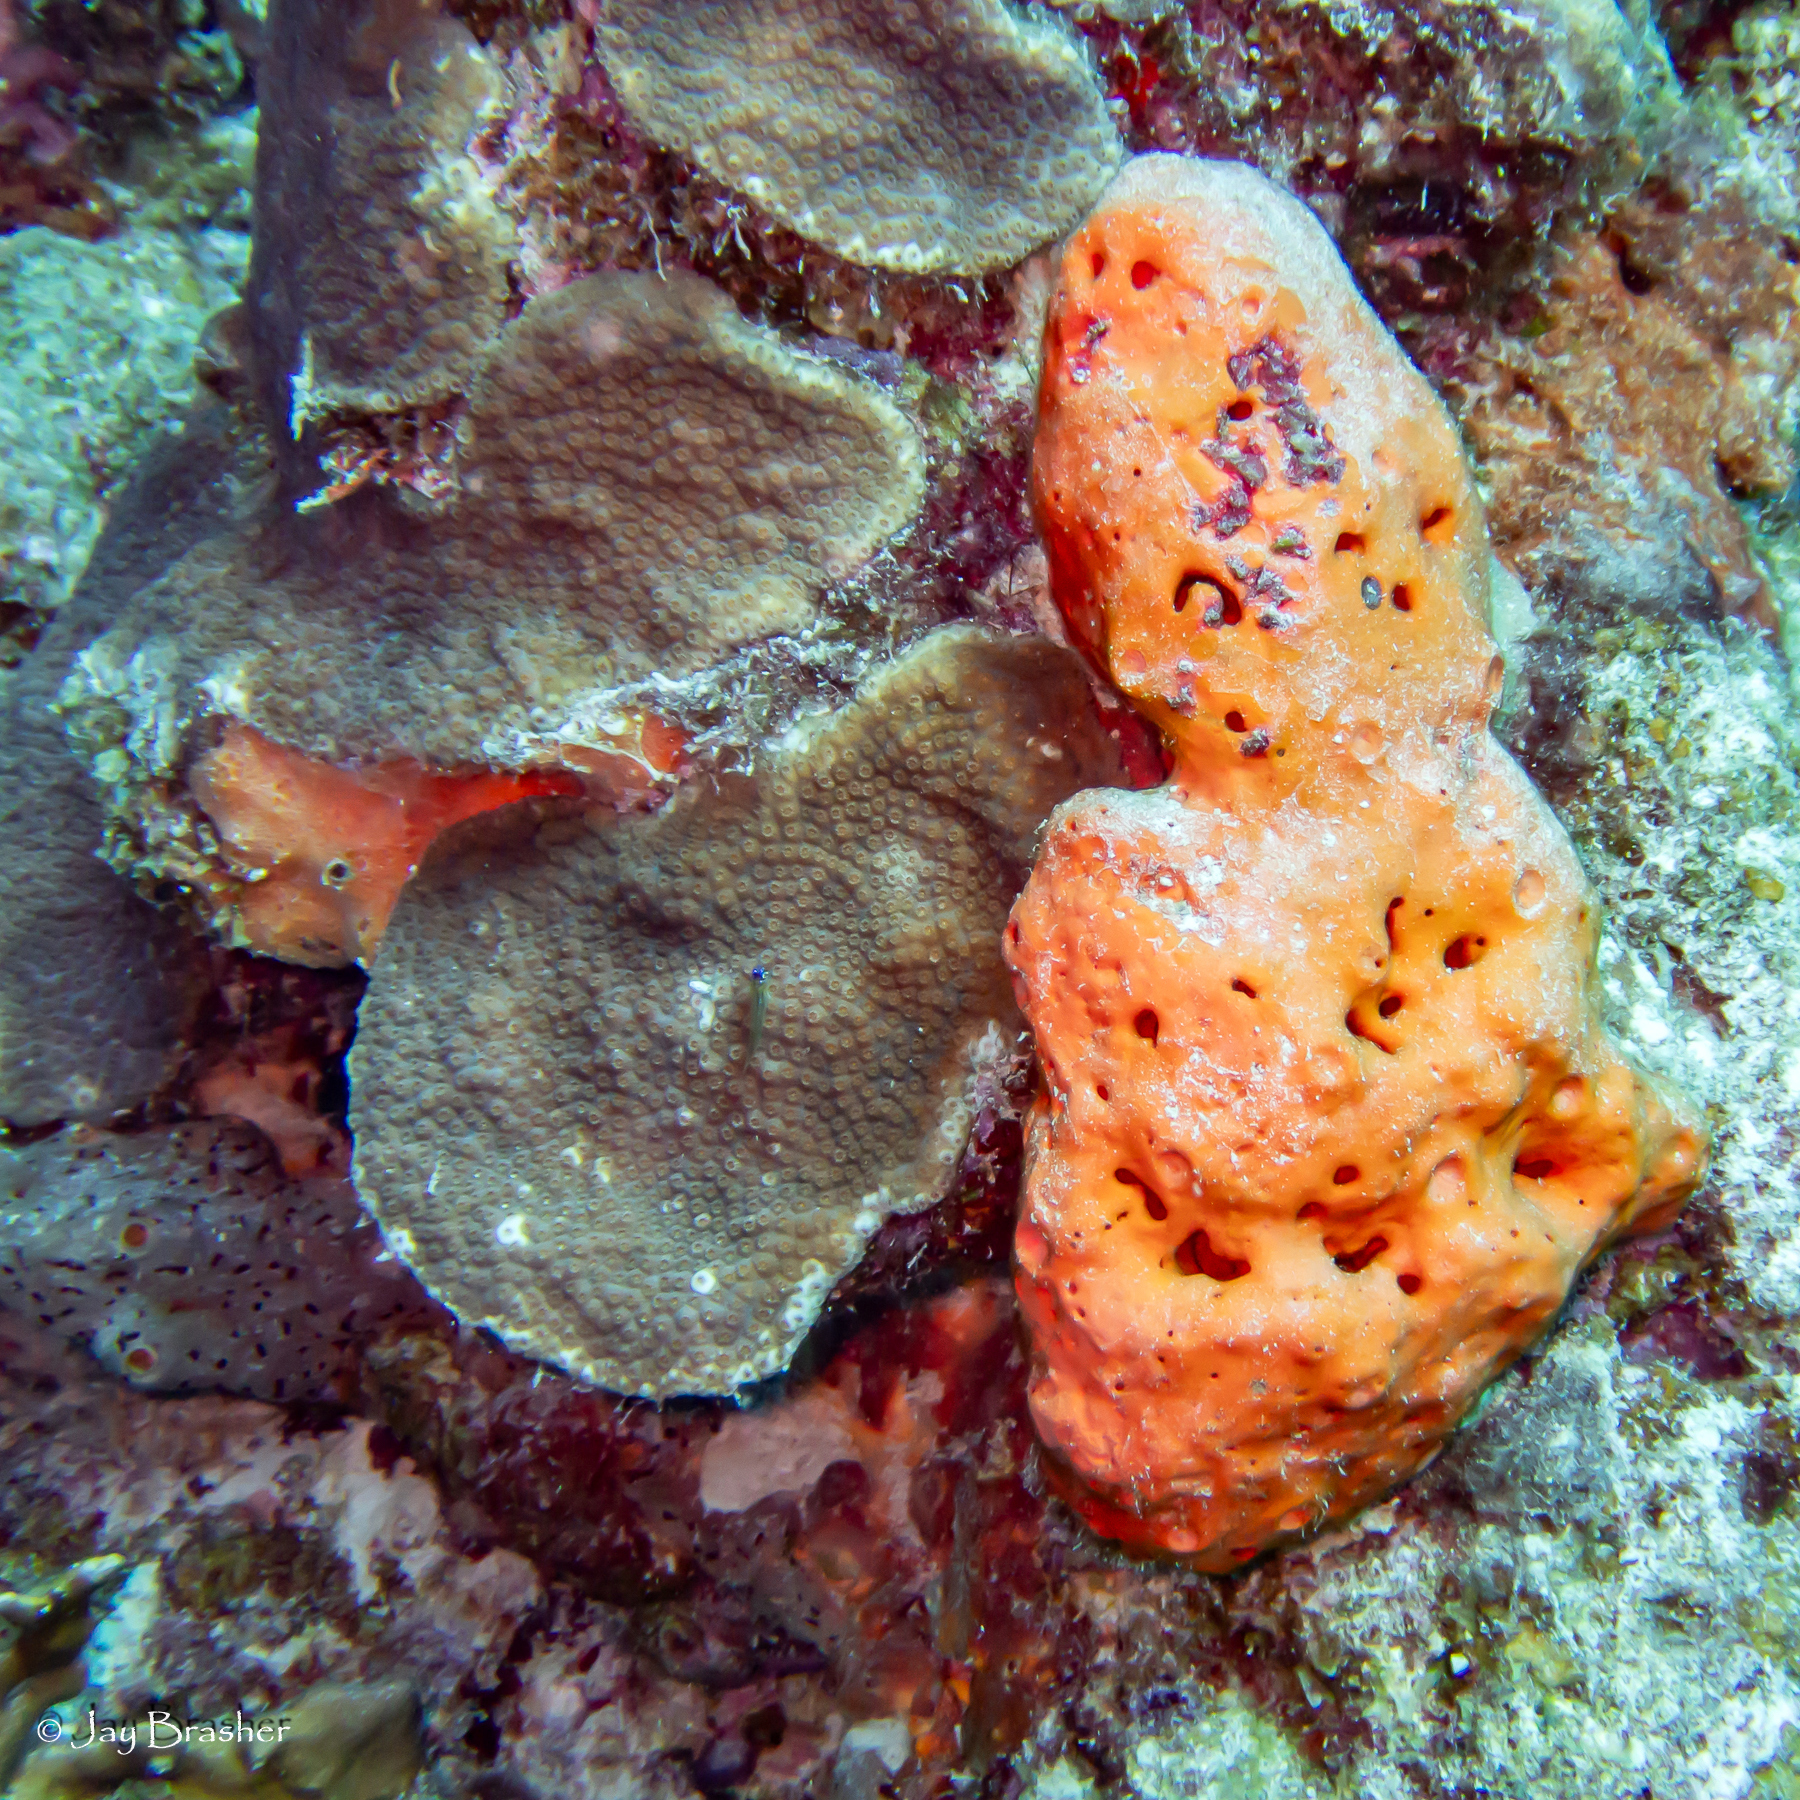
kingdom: Animalia
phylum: Porifera
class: Demospongiae
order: Agelasida
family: Agelasidae
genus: Agelas
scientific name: Agelas sventres
